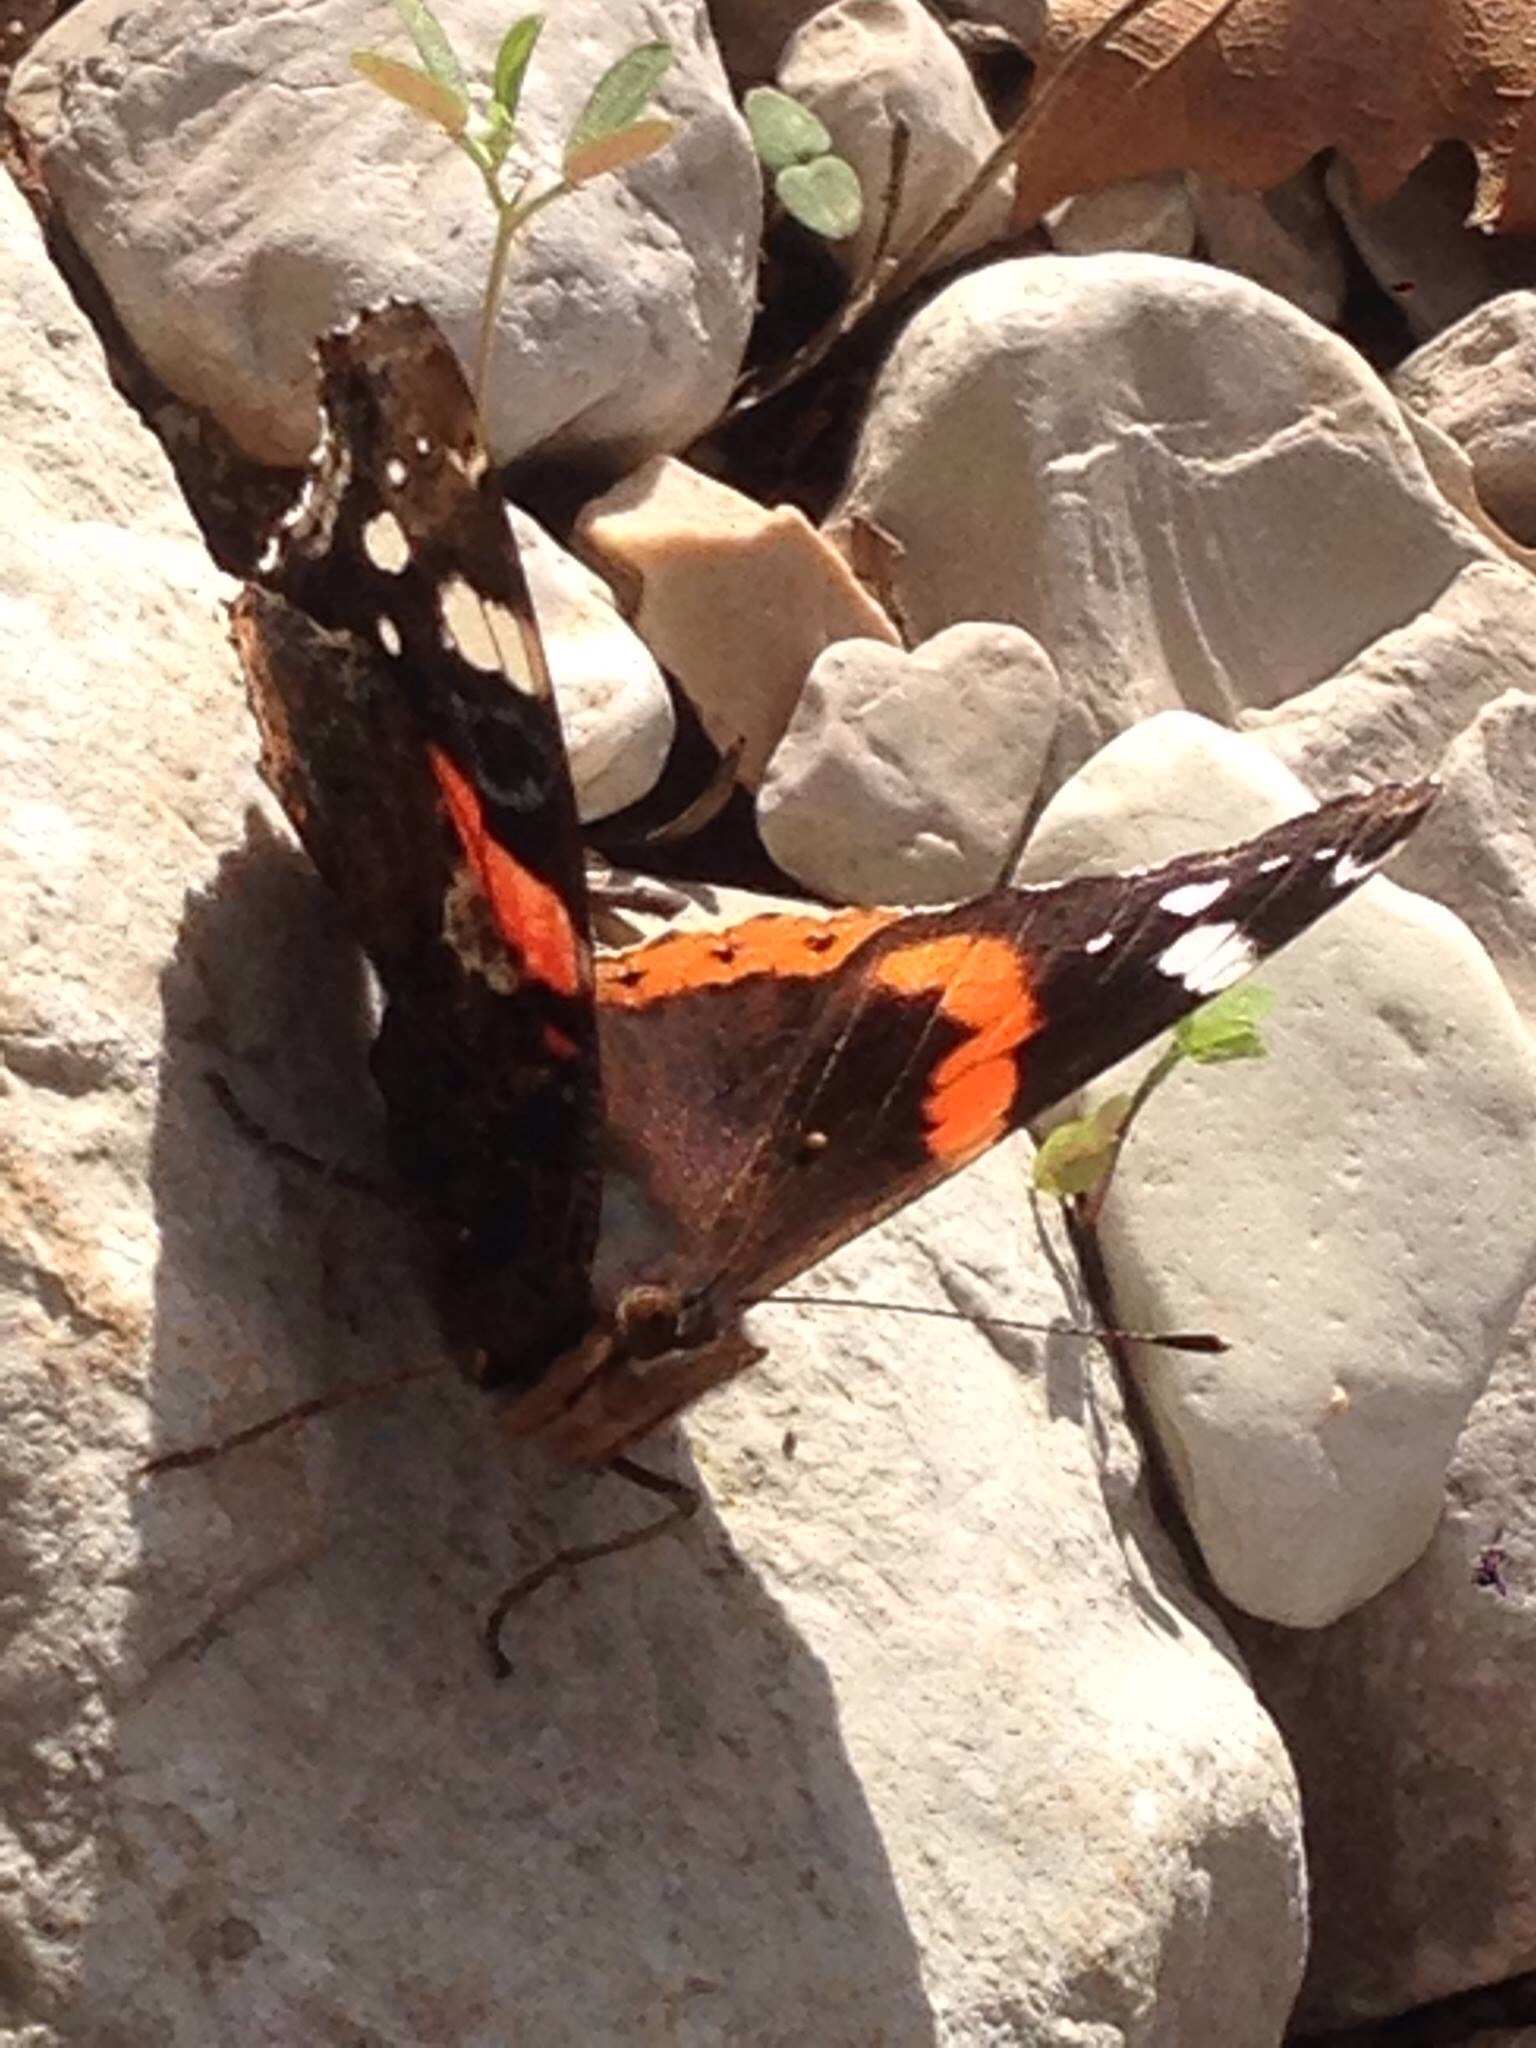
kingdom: Animalia
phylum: Arthropoda
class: Insecta
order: Lepidoptera
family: Nymphalidae
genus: Vanessa
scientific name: Vanessa atalanta
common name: Red admiral
